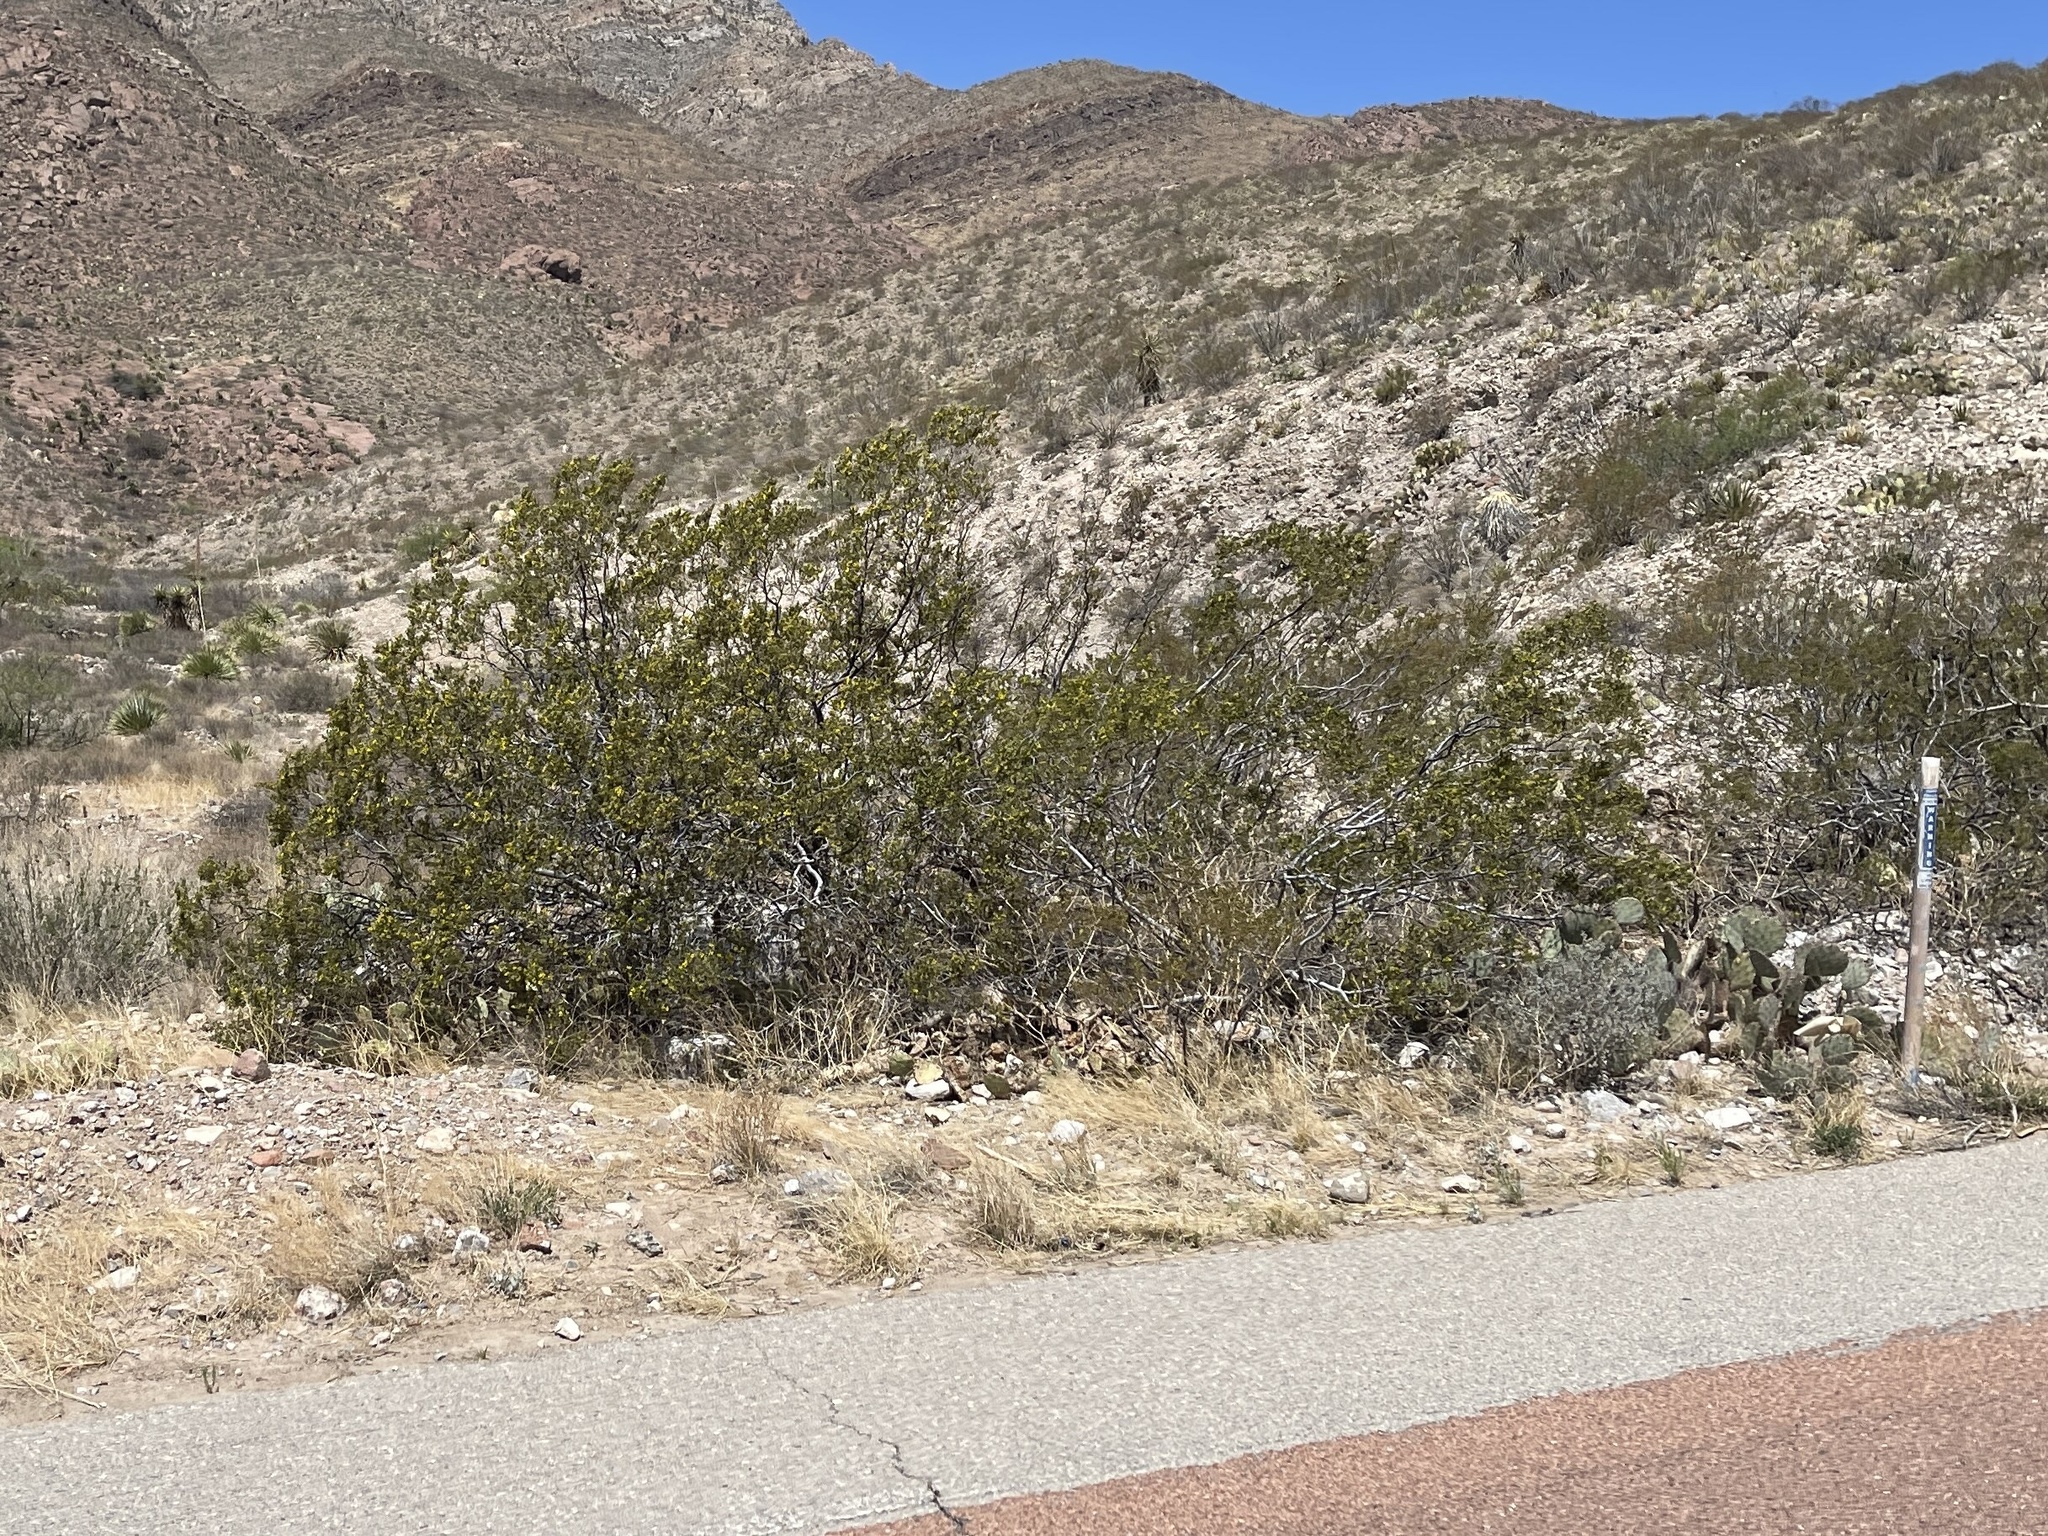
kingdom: Plantae
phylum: Tracheophyta
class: Magnoliopsida
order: Zygophyllales
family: Zygophyllaceae
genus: Larrea
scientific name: Larrea tridentata
